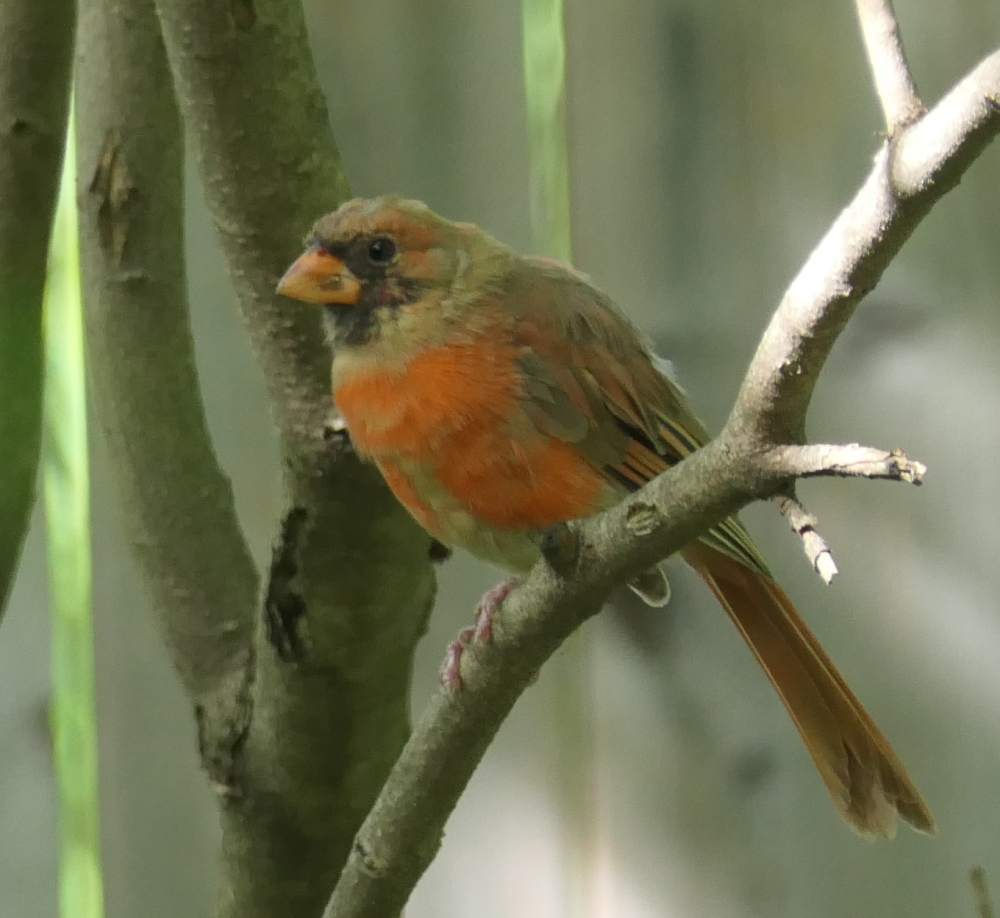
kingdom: Animalia
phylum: Chordata
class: Aves
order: Passeriformes
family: Cardinalidae
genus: Cardinalis
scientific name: Cardinalis cardinalis
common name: Northern cardinal
